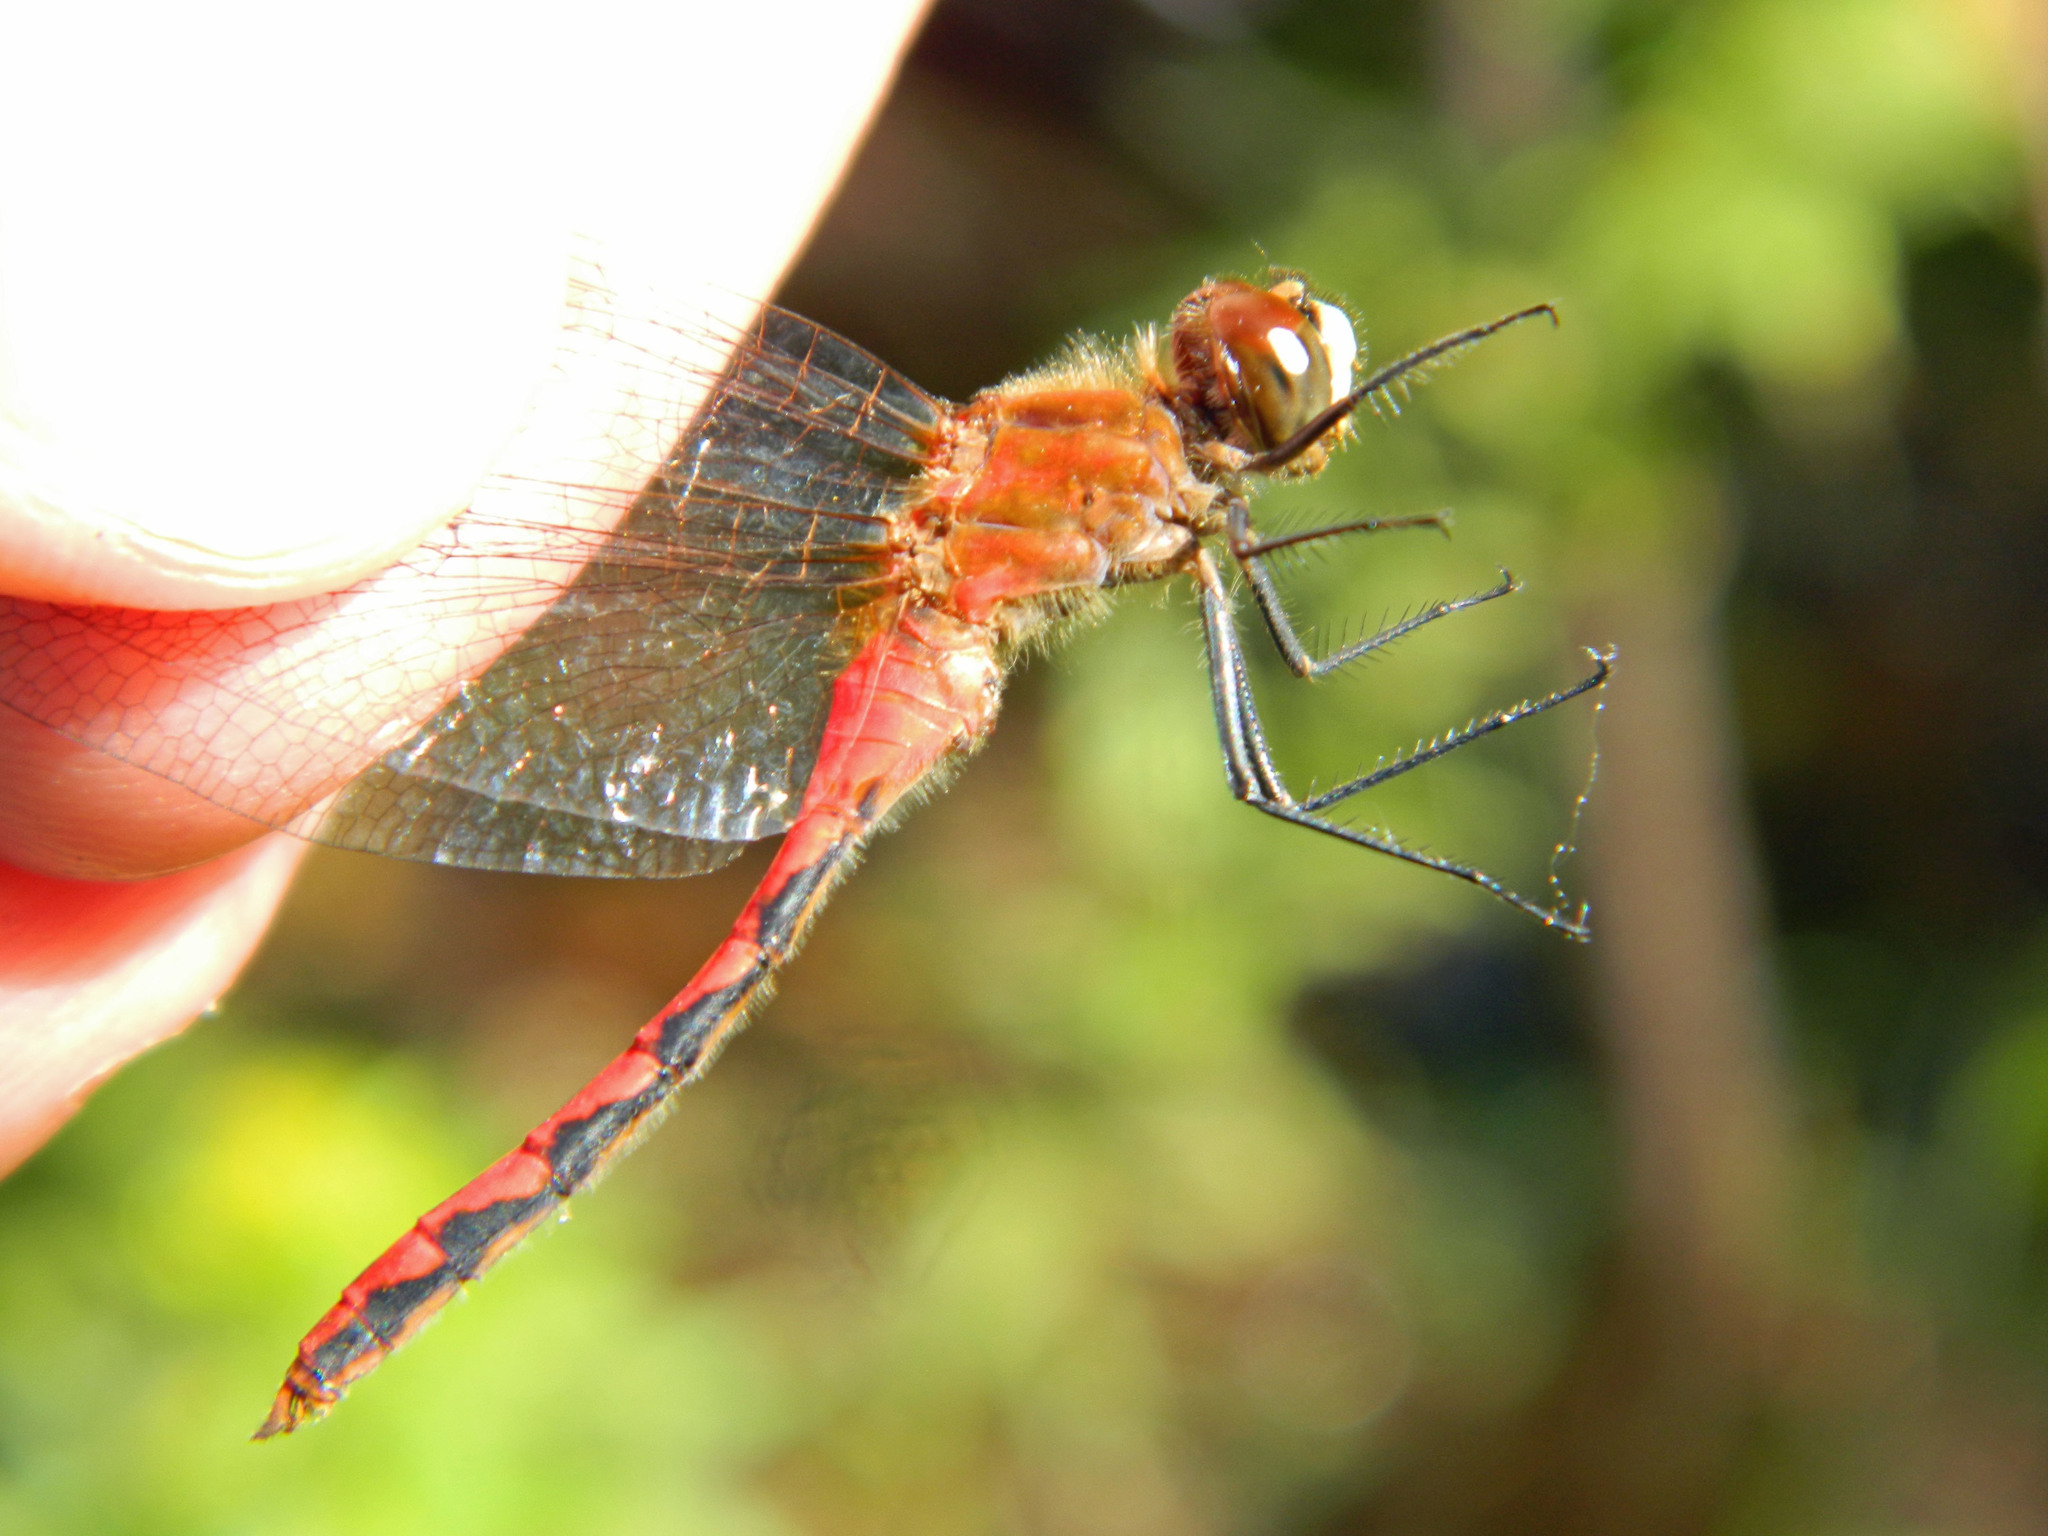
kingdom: Animalia
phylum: Arthropoda
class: Insecta
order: Odonata
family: Libellulidae
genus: Sympetrum
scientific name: Sympetrum obtrusum
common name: White-faced meadowhawk
